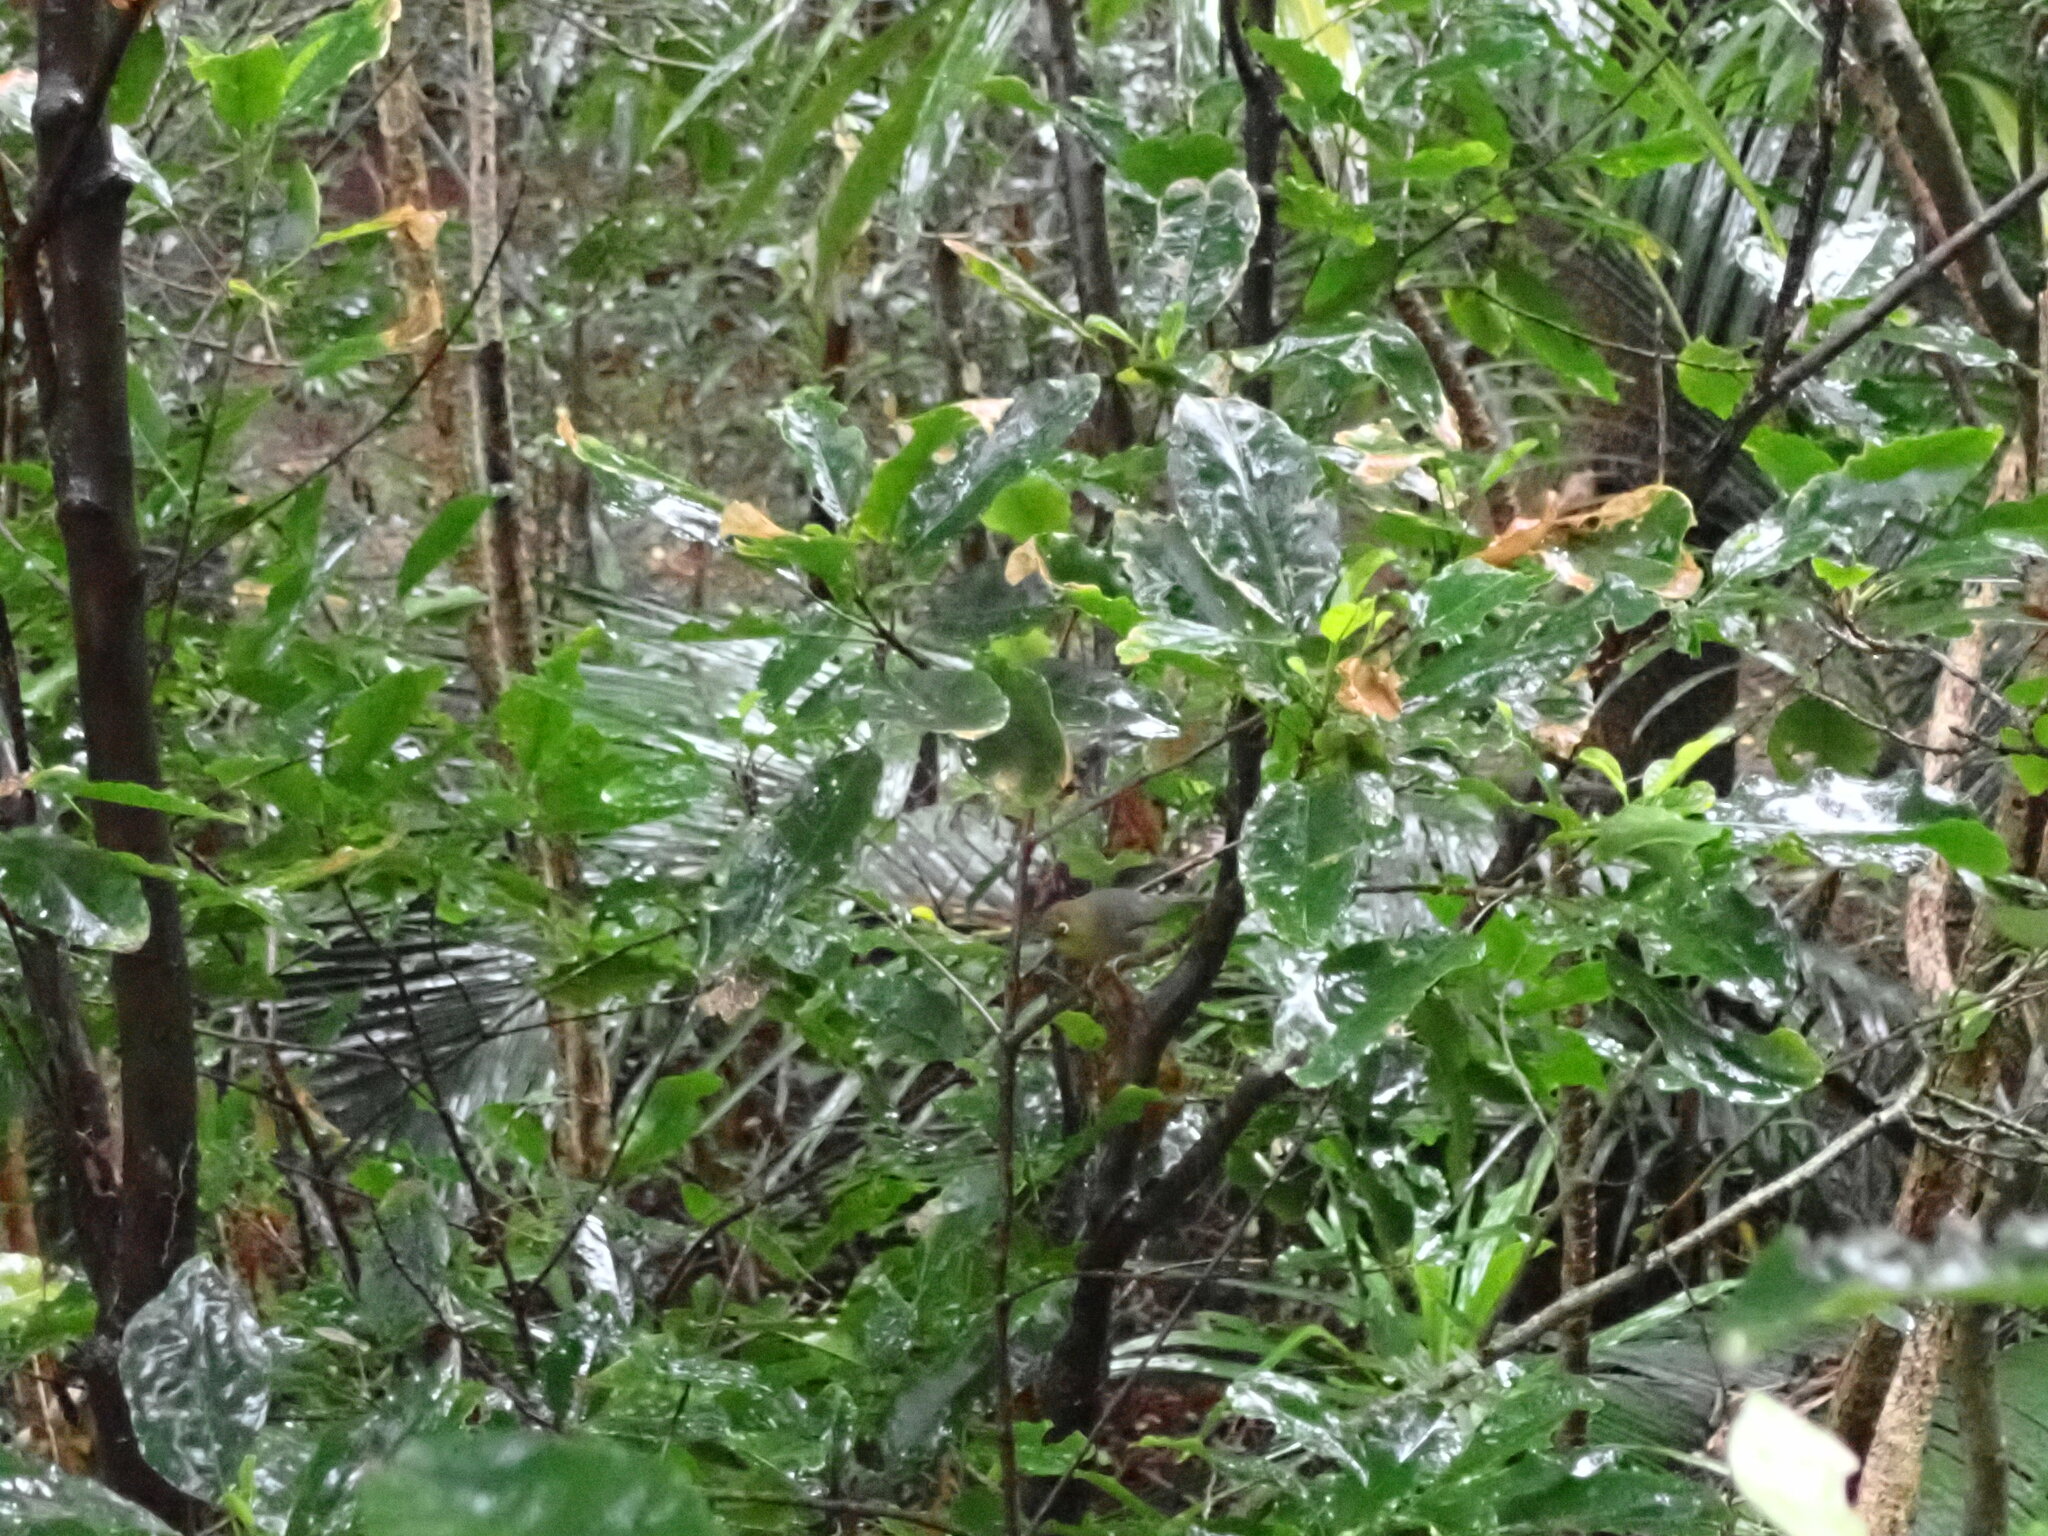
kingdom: Animalia
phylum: Chordata
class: Aves
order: Passeriformes
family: Zosteropidae
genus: Zosterops
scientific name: Zosterops tenuirostris
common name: Slender-billed white-eye
